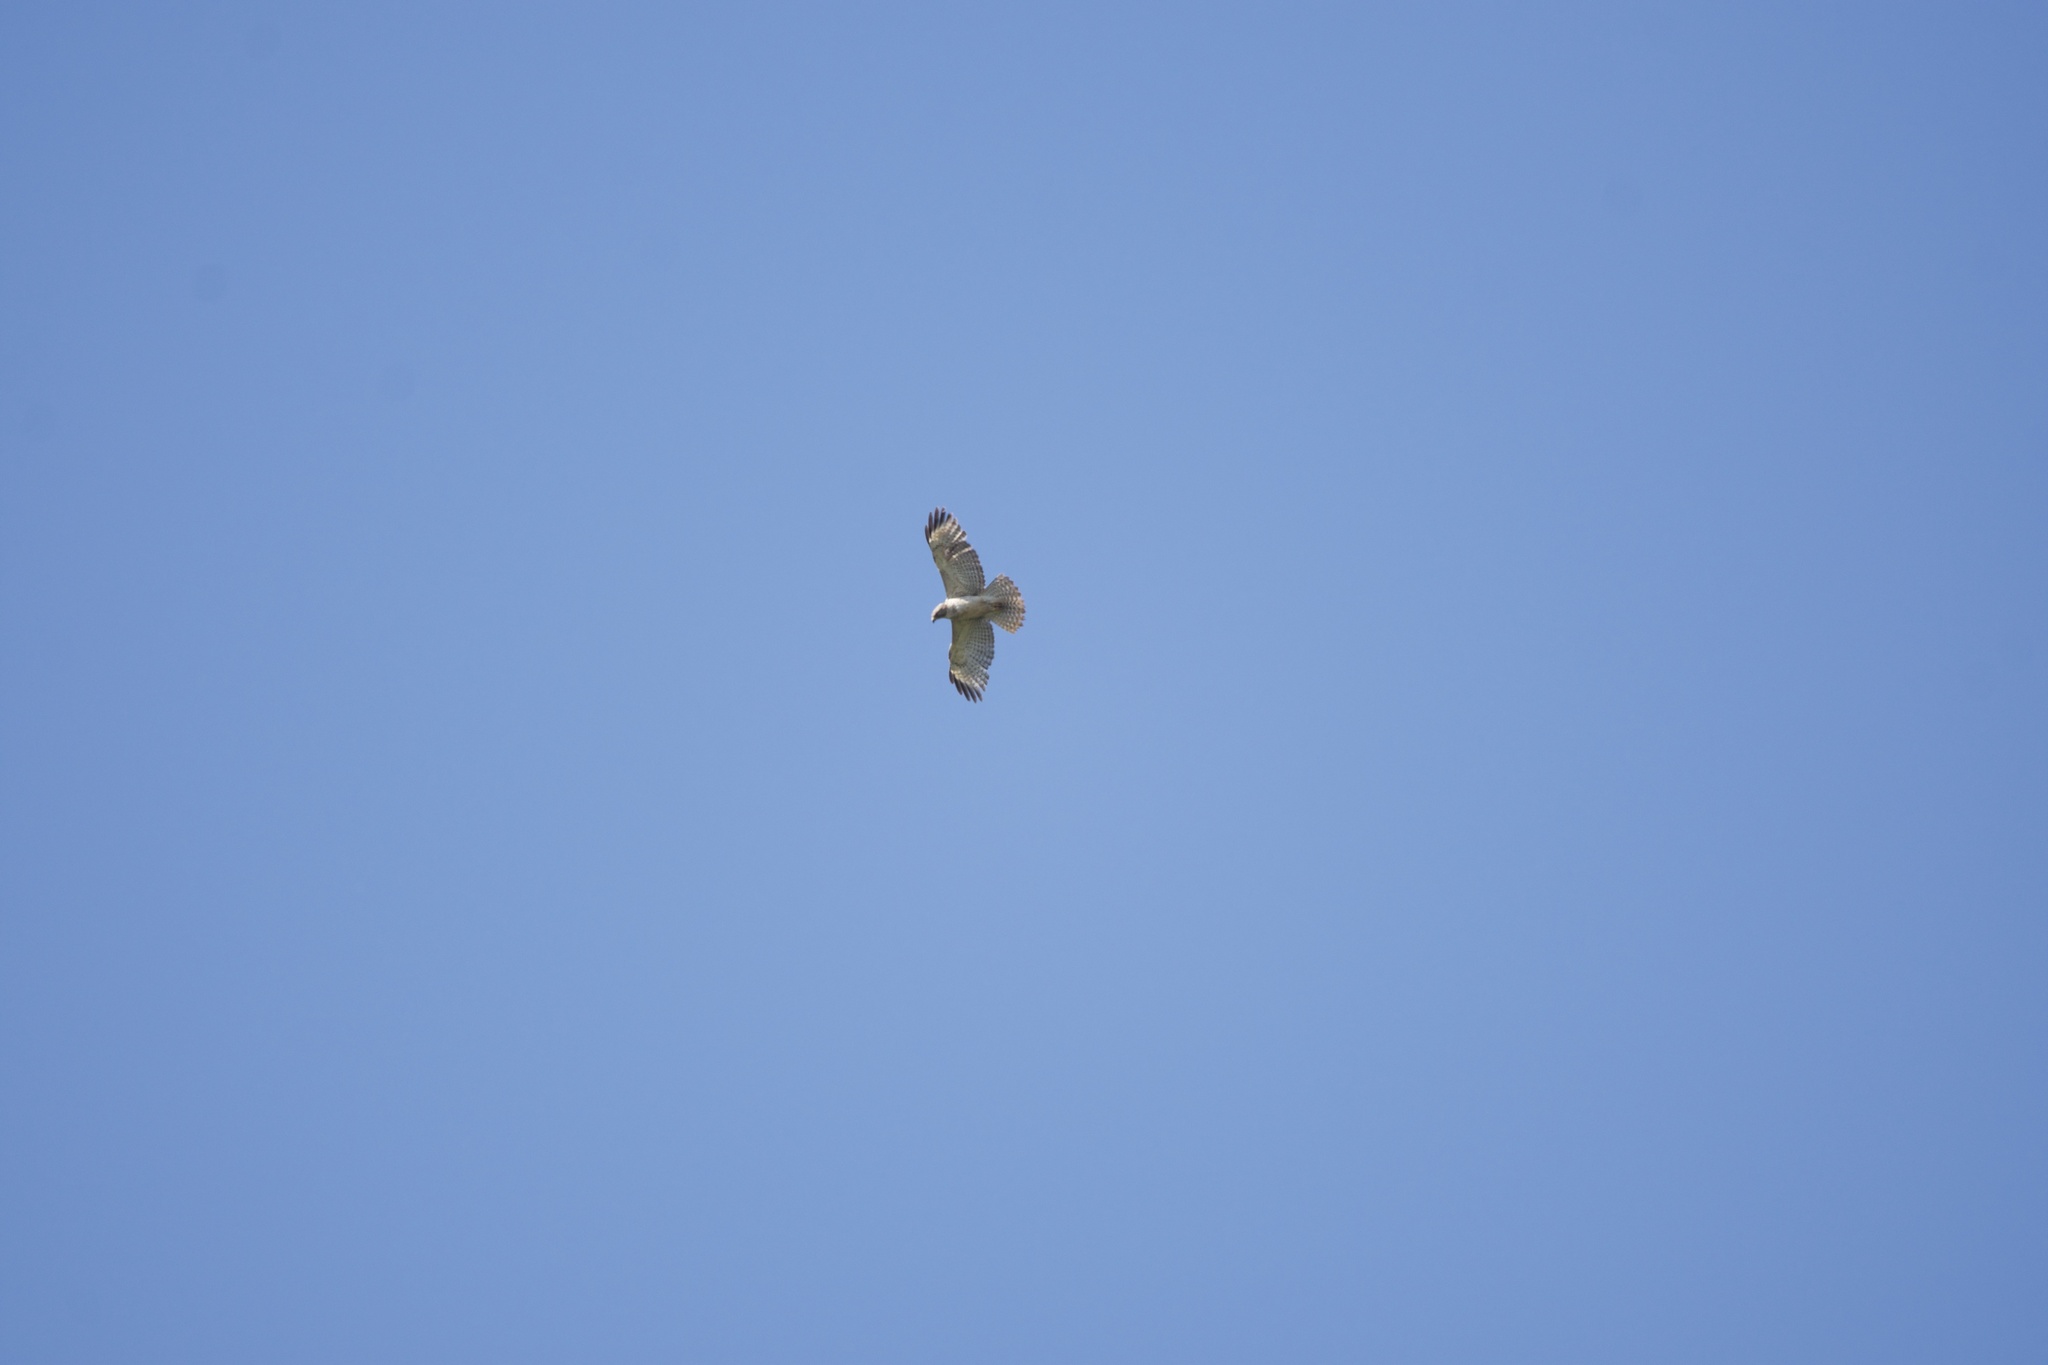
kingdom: Animalia
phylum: Chordata
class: Aves
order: Accipitriformes
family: Accipitridae
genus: Buteo
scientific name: Buteo lineatus
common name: Red-shouldered hawk
